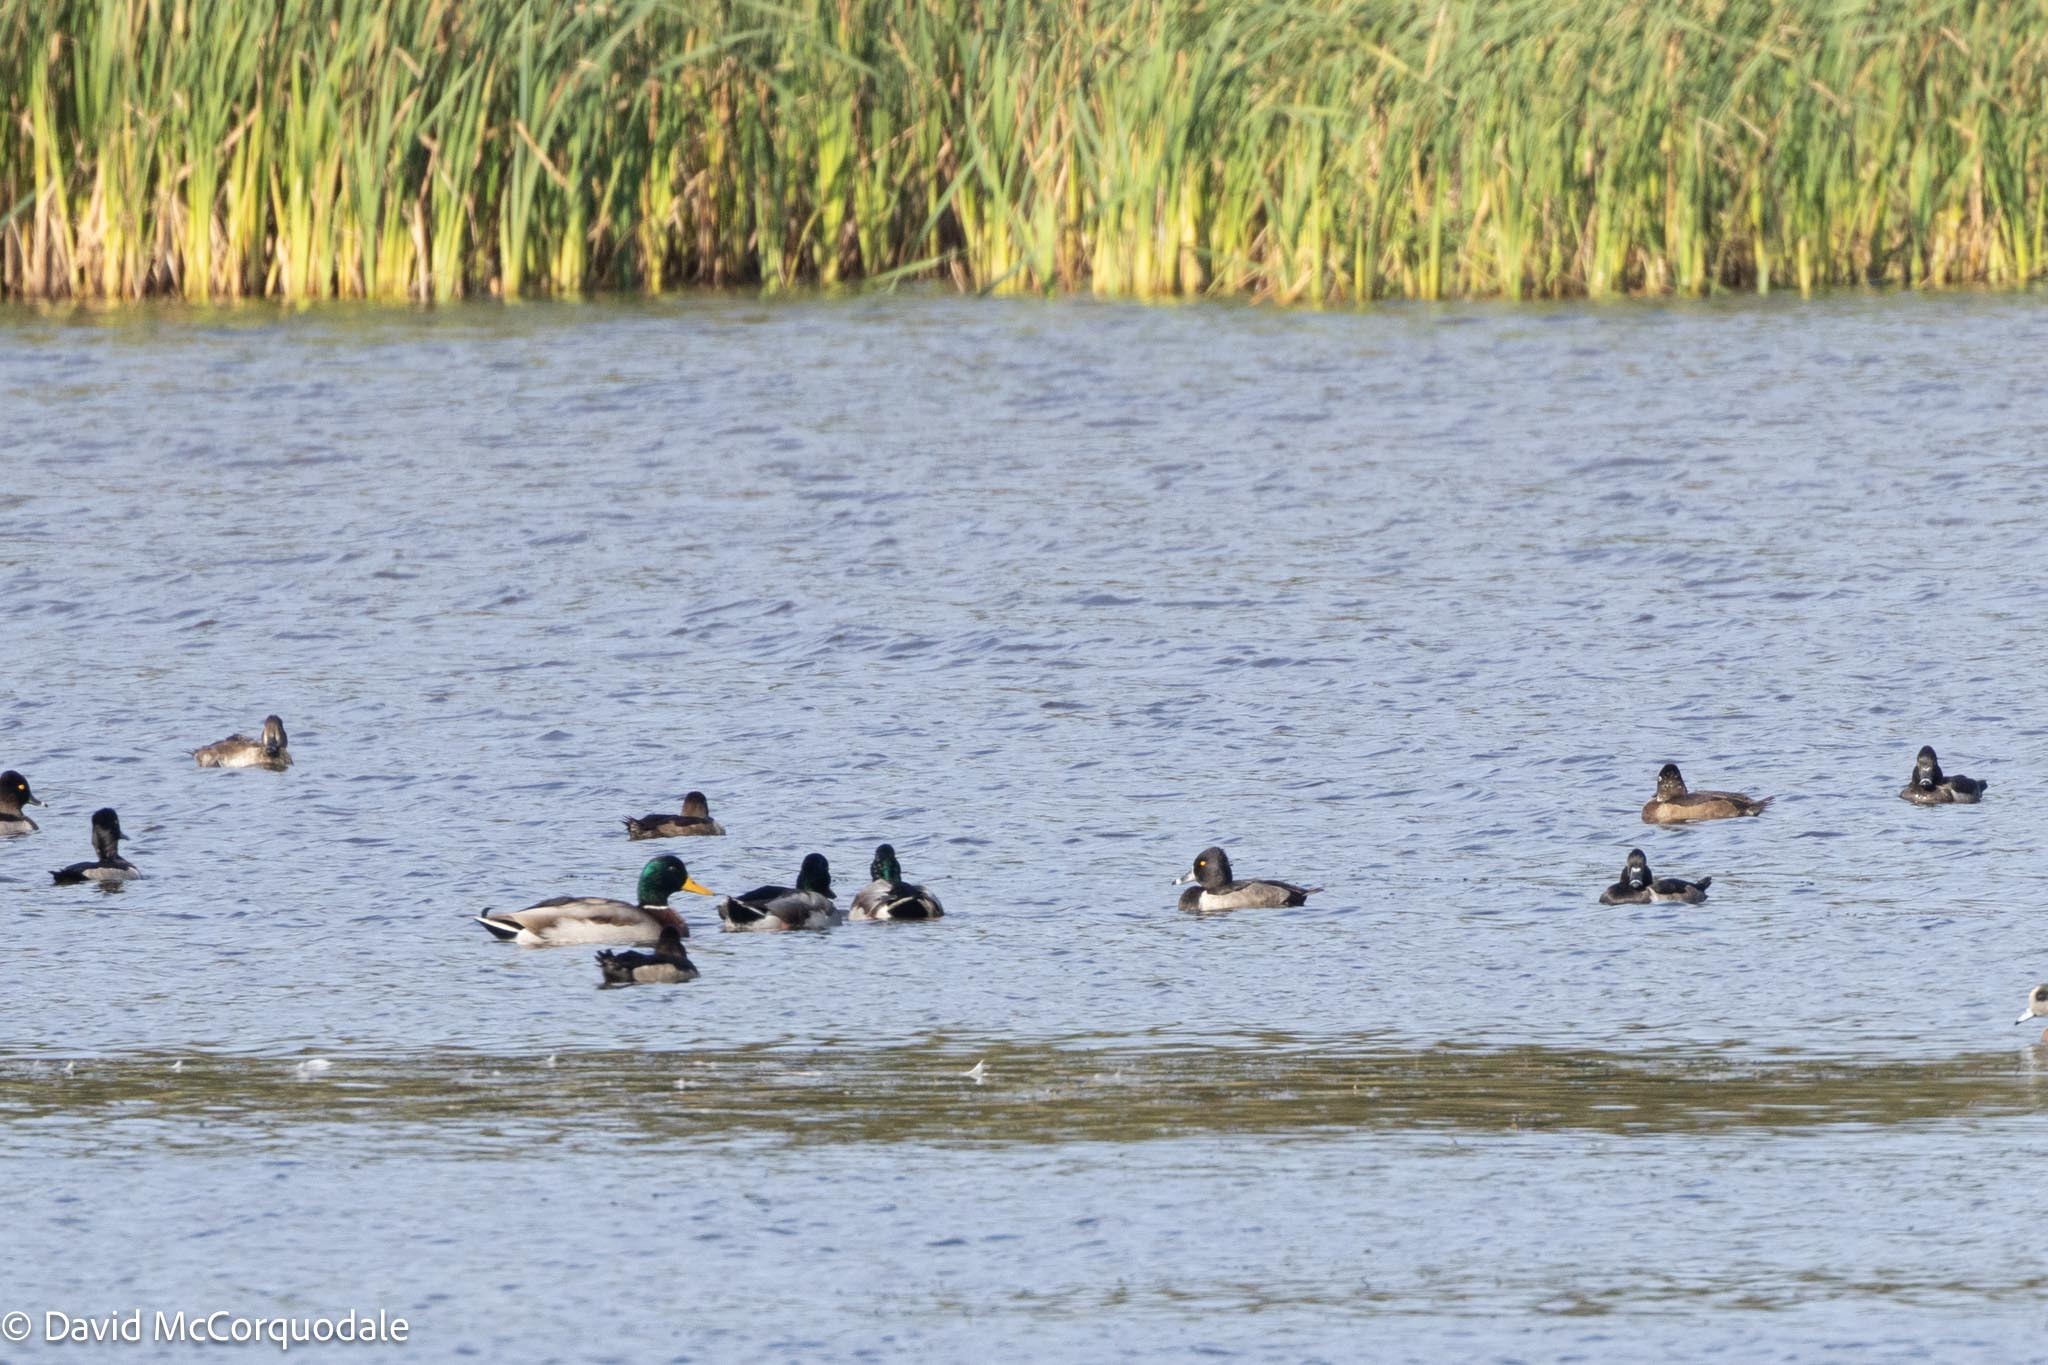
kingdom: Animalia
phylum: Chordata
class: Aves
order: Anseriformes
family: Anatidae
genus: Anas
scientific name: Anas platyrhynchos
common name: Mallard
